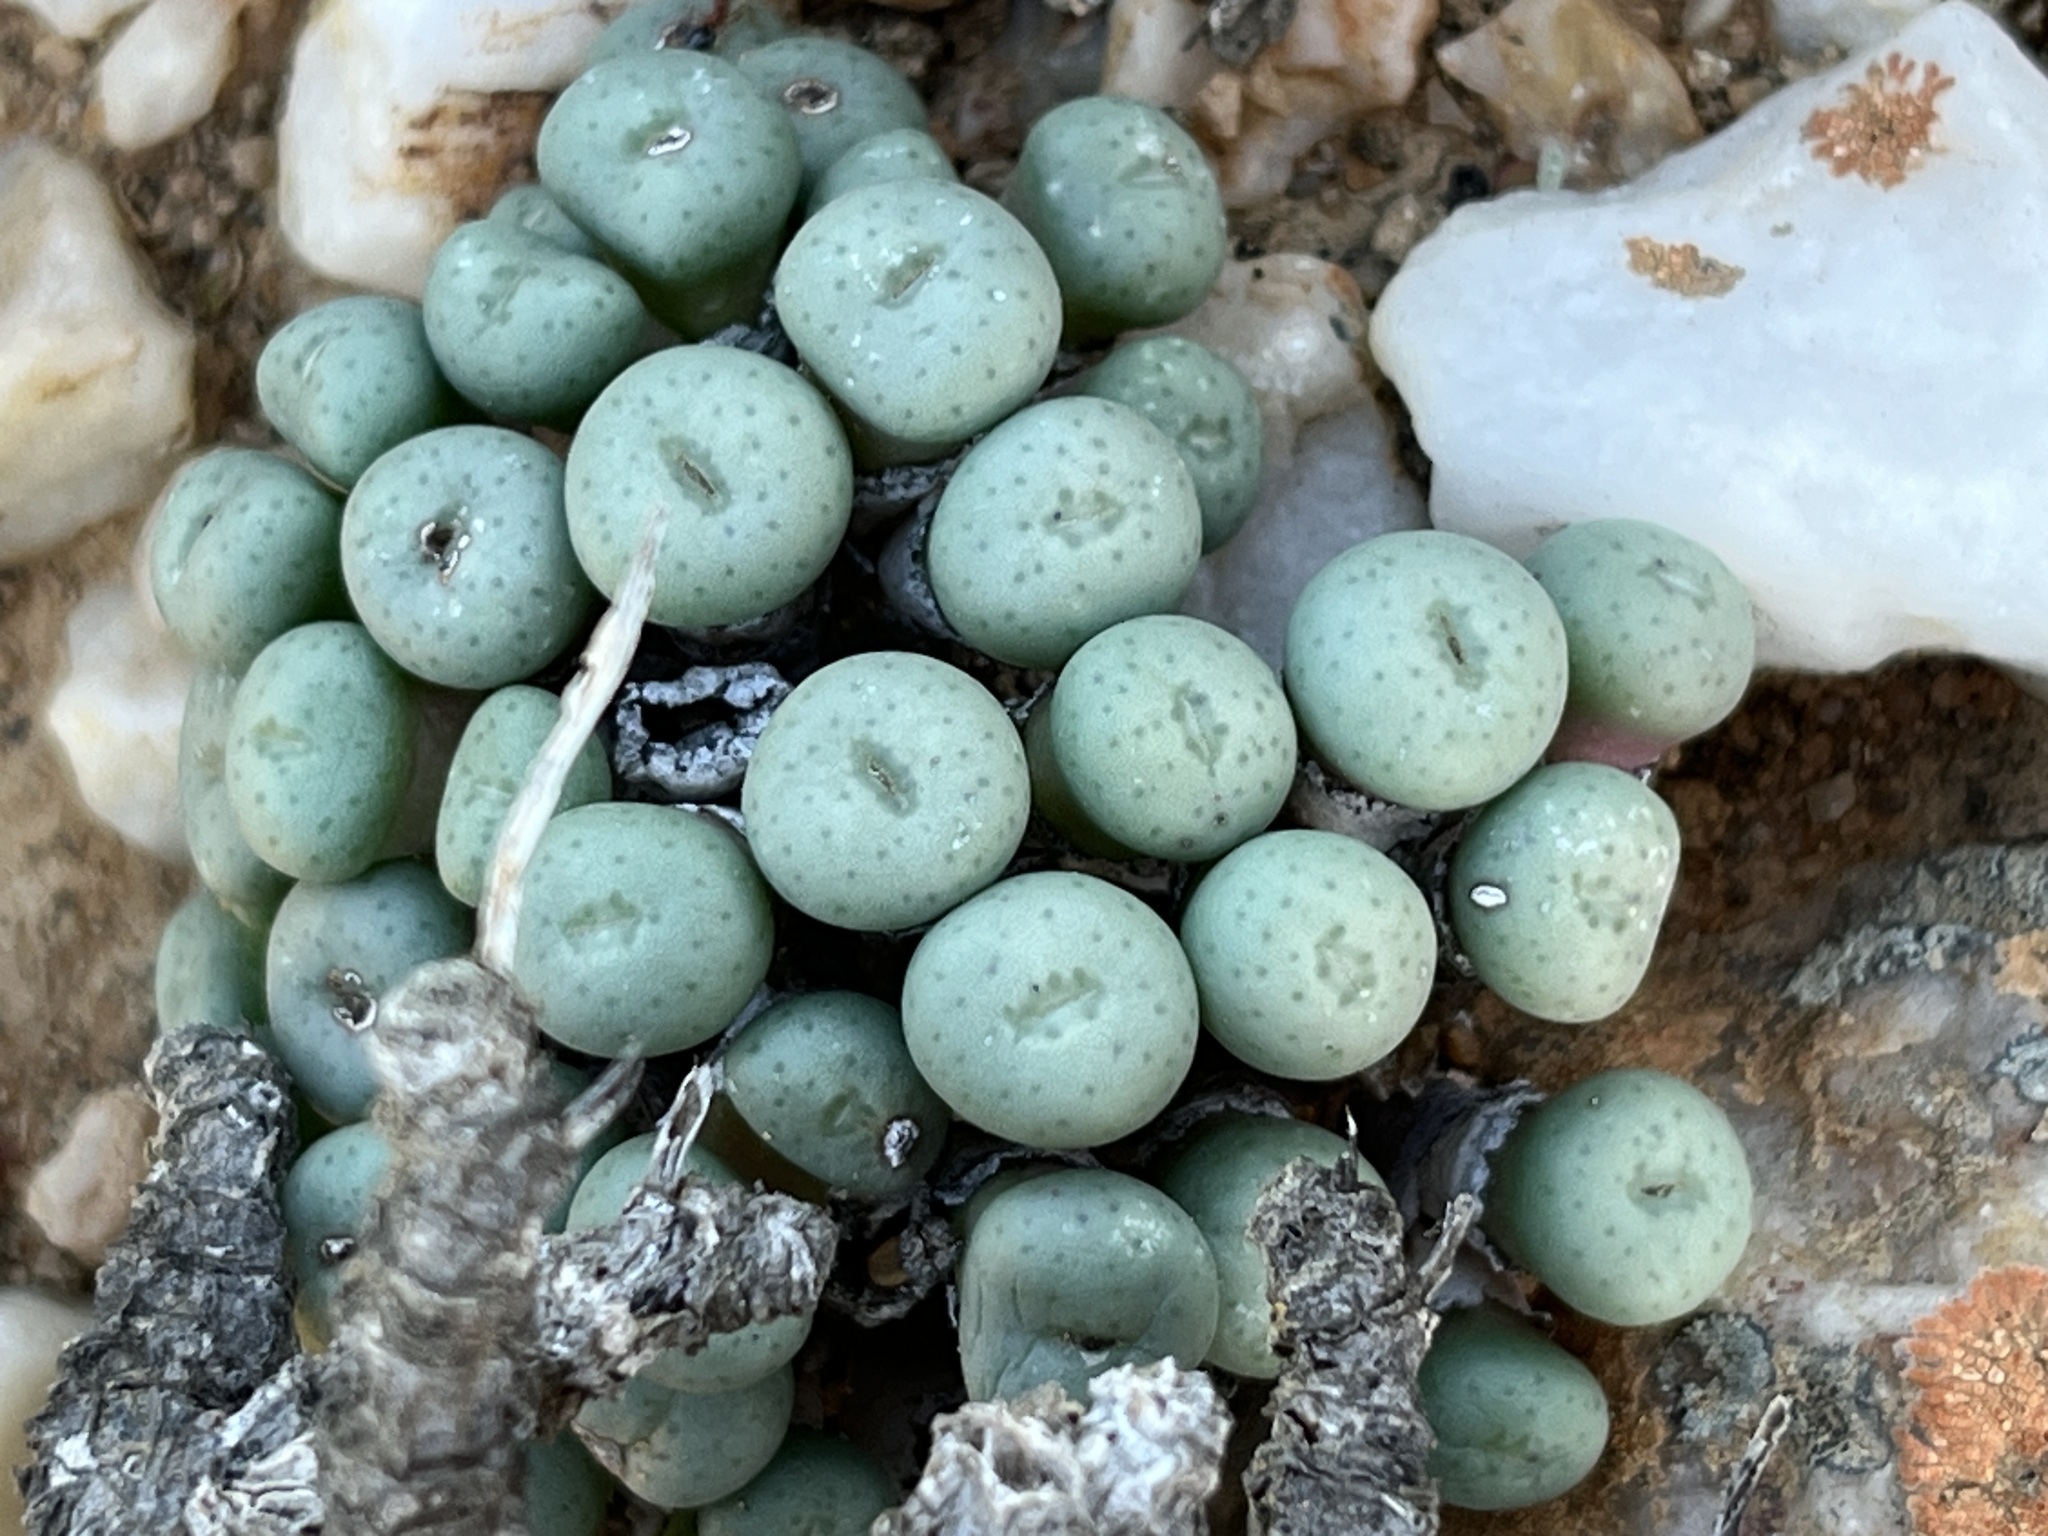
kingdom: Plantae
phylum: Tracheophyta
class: Magnoliopsida
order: Caryophyllales
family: Aizoaceae
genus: Conophytum
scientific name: Conophytum minutum
